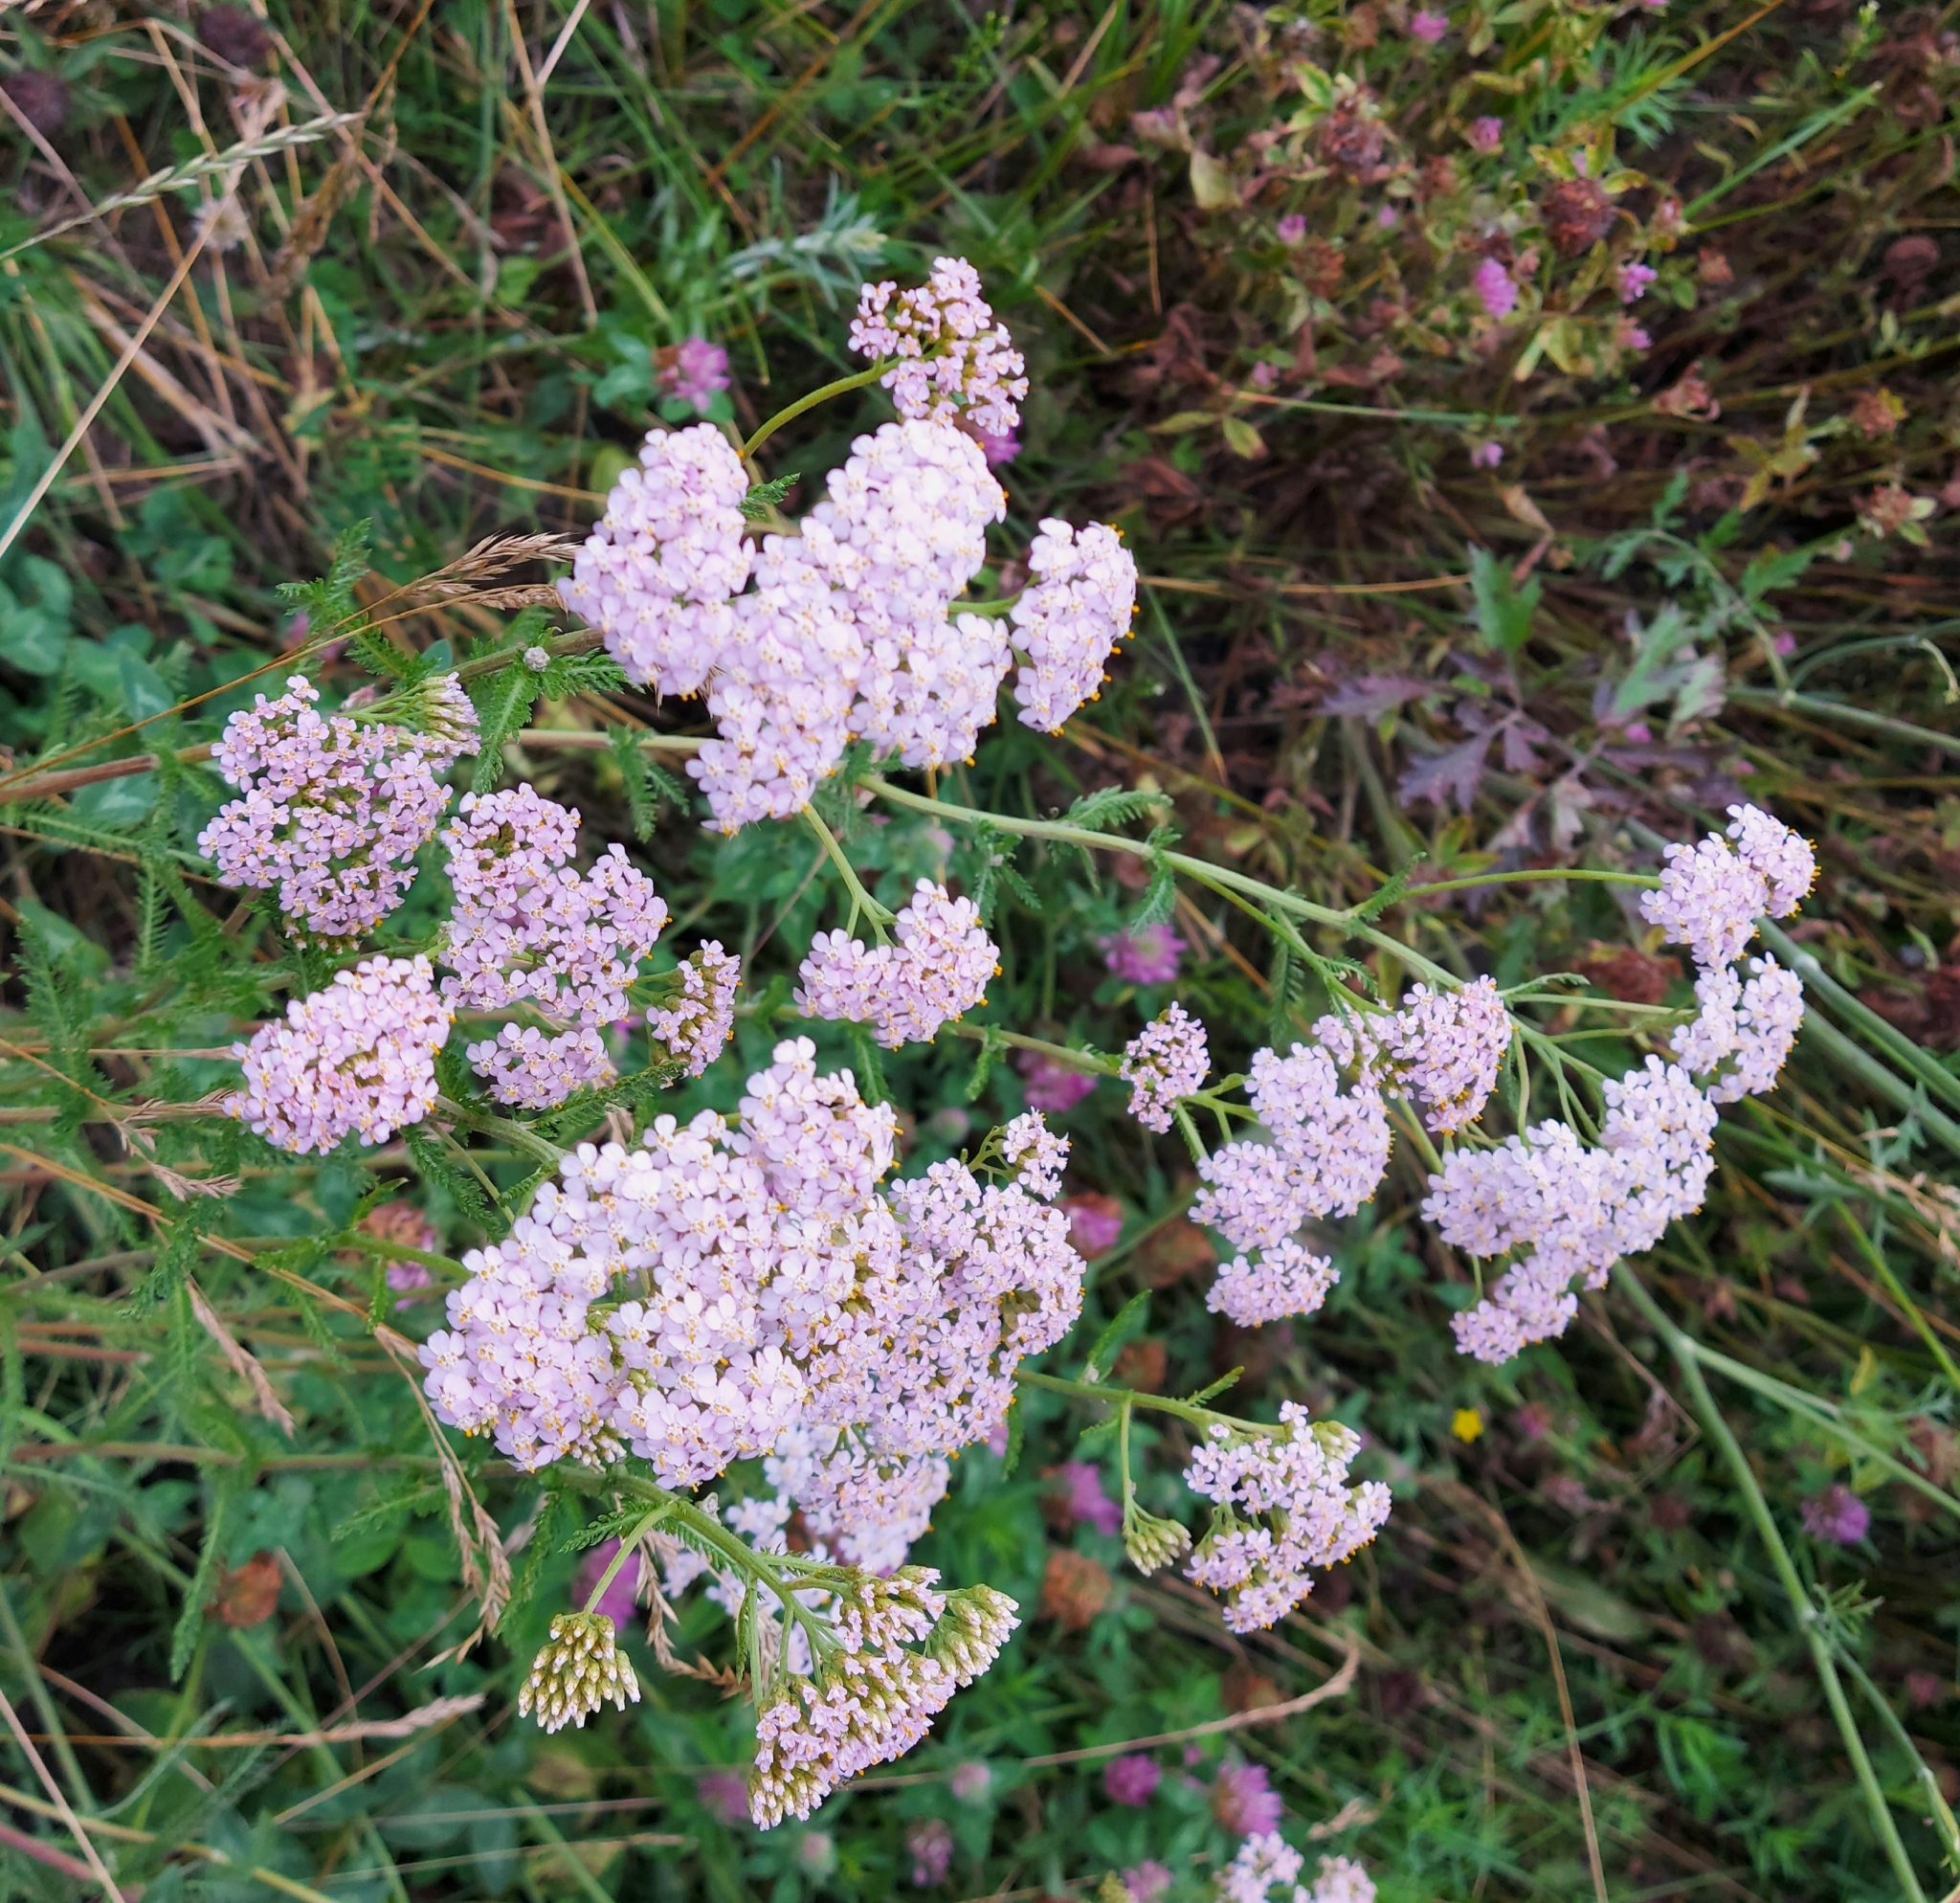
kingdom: Plantae
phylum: Tracheophyta
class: Magnoliopsida
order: Asterales
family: Asteraceae
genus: Achillea
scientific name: Achillea asiatica
